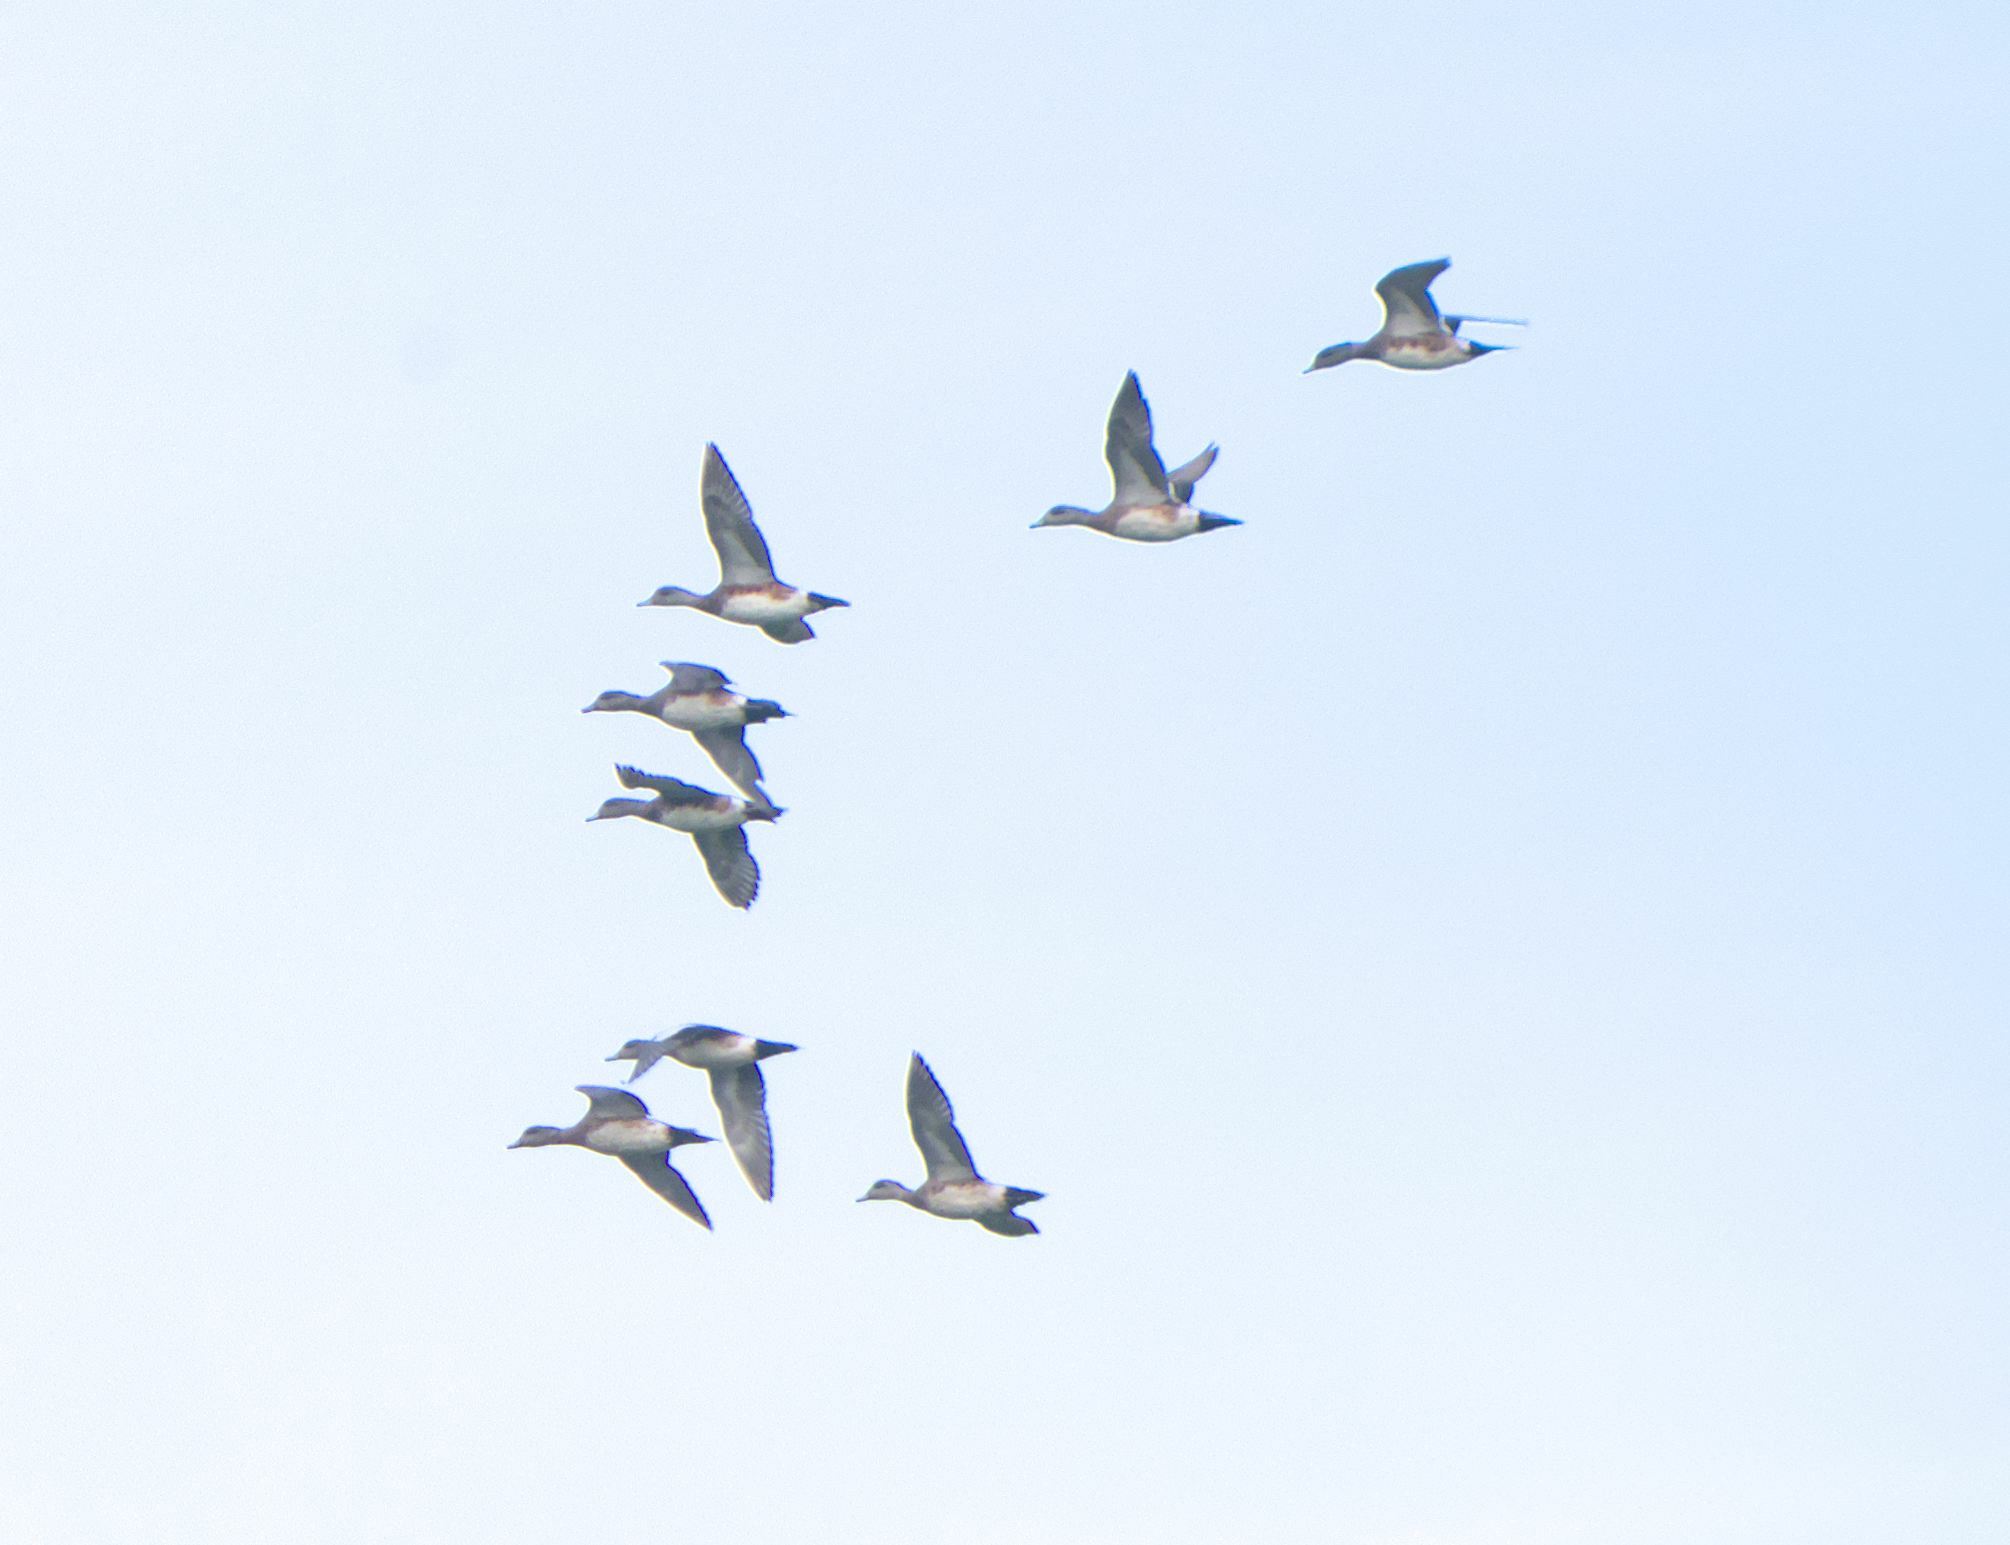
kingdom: Animalia
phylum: Chordata
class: Aves
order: Anseriformes
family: Anatidae
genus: Mareca
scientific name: Mareca americana
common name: American wigeon
